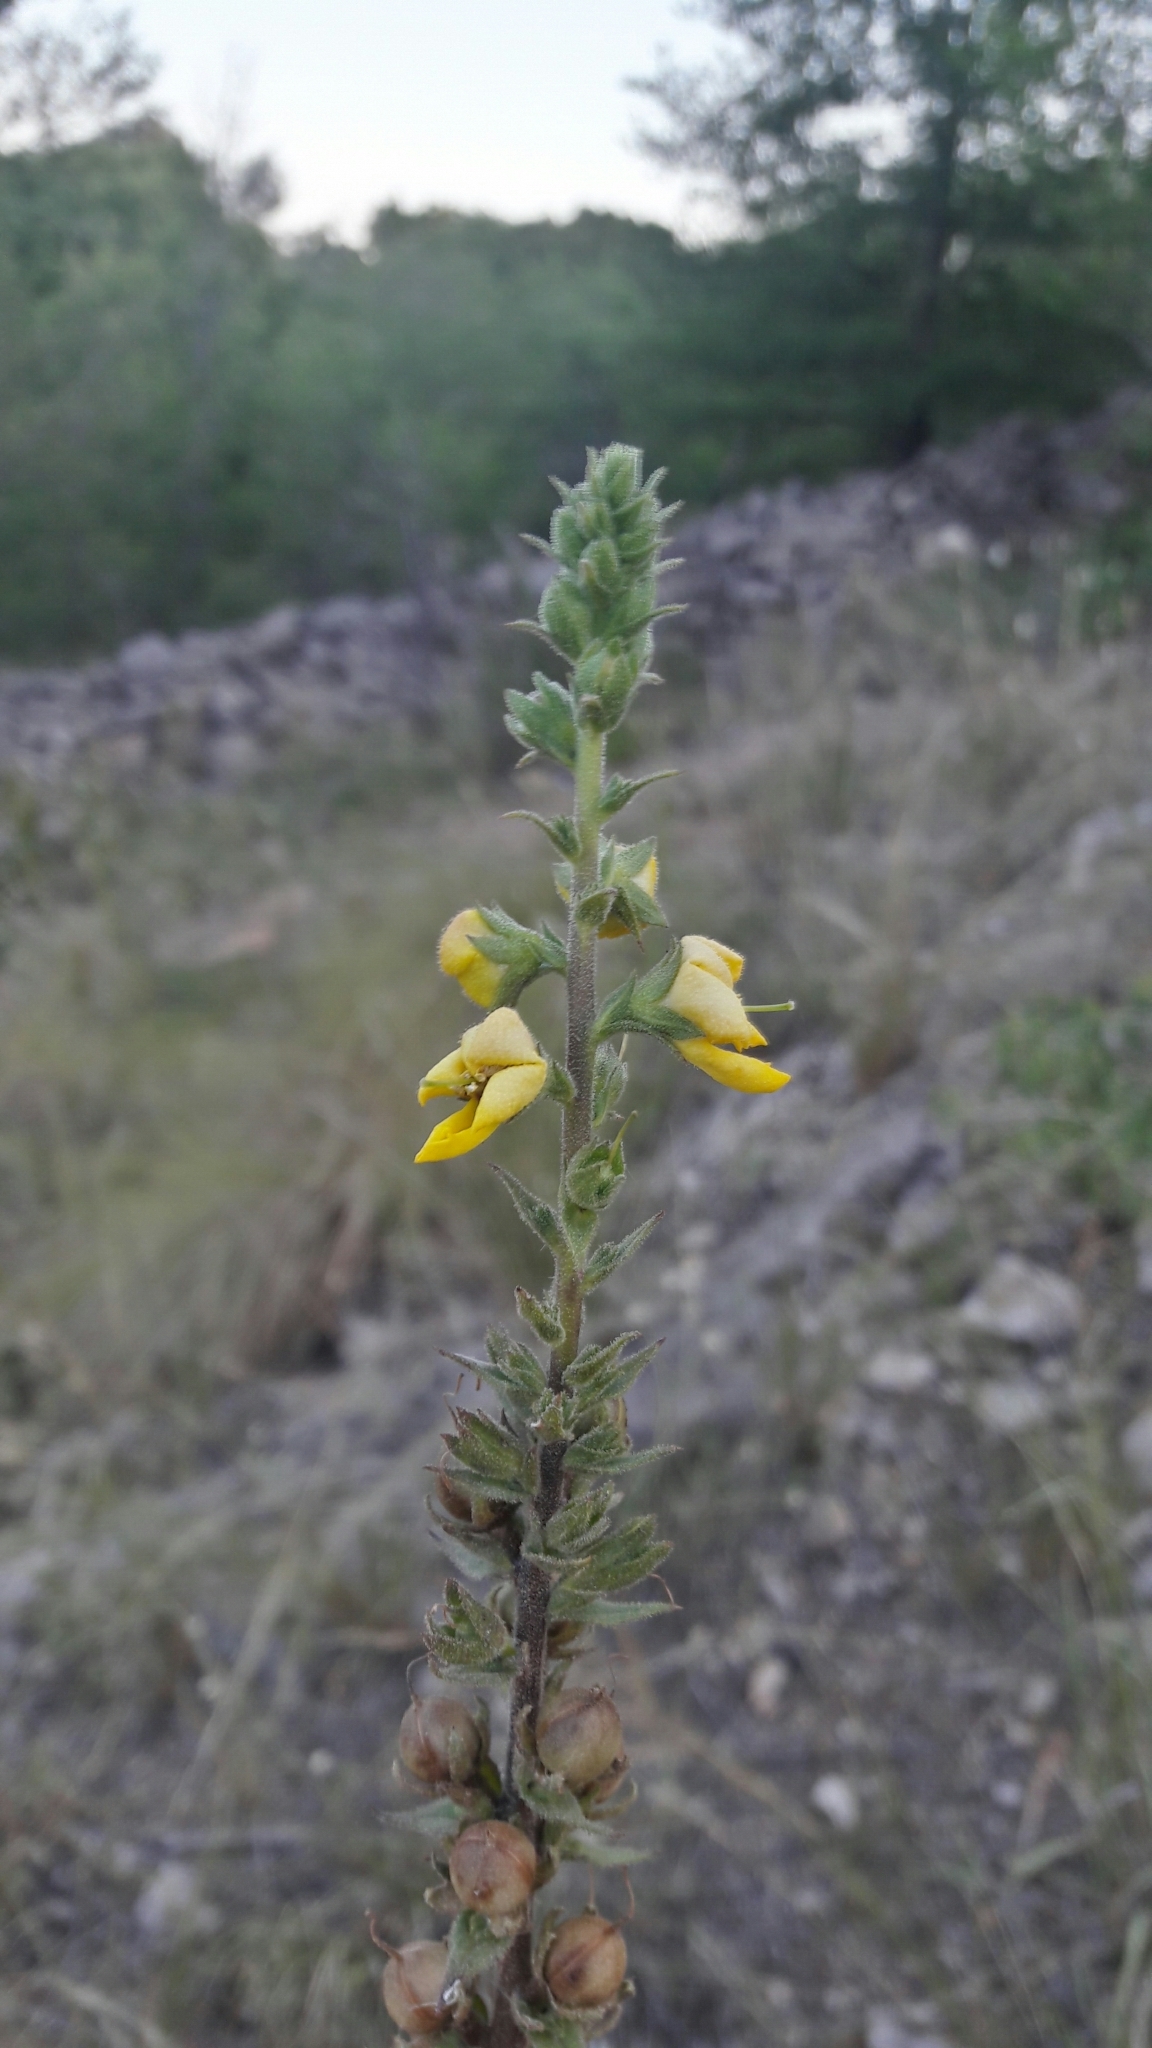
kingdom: Plantae
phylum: Tracheophyta
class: Magnoliopsida
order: Lamiales
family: Scrophulariaceae
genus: Verbascum
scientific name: Verbascum virgatum
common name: Twiggy mullein
